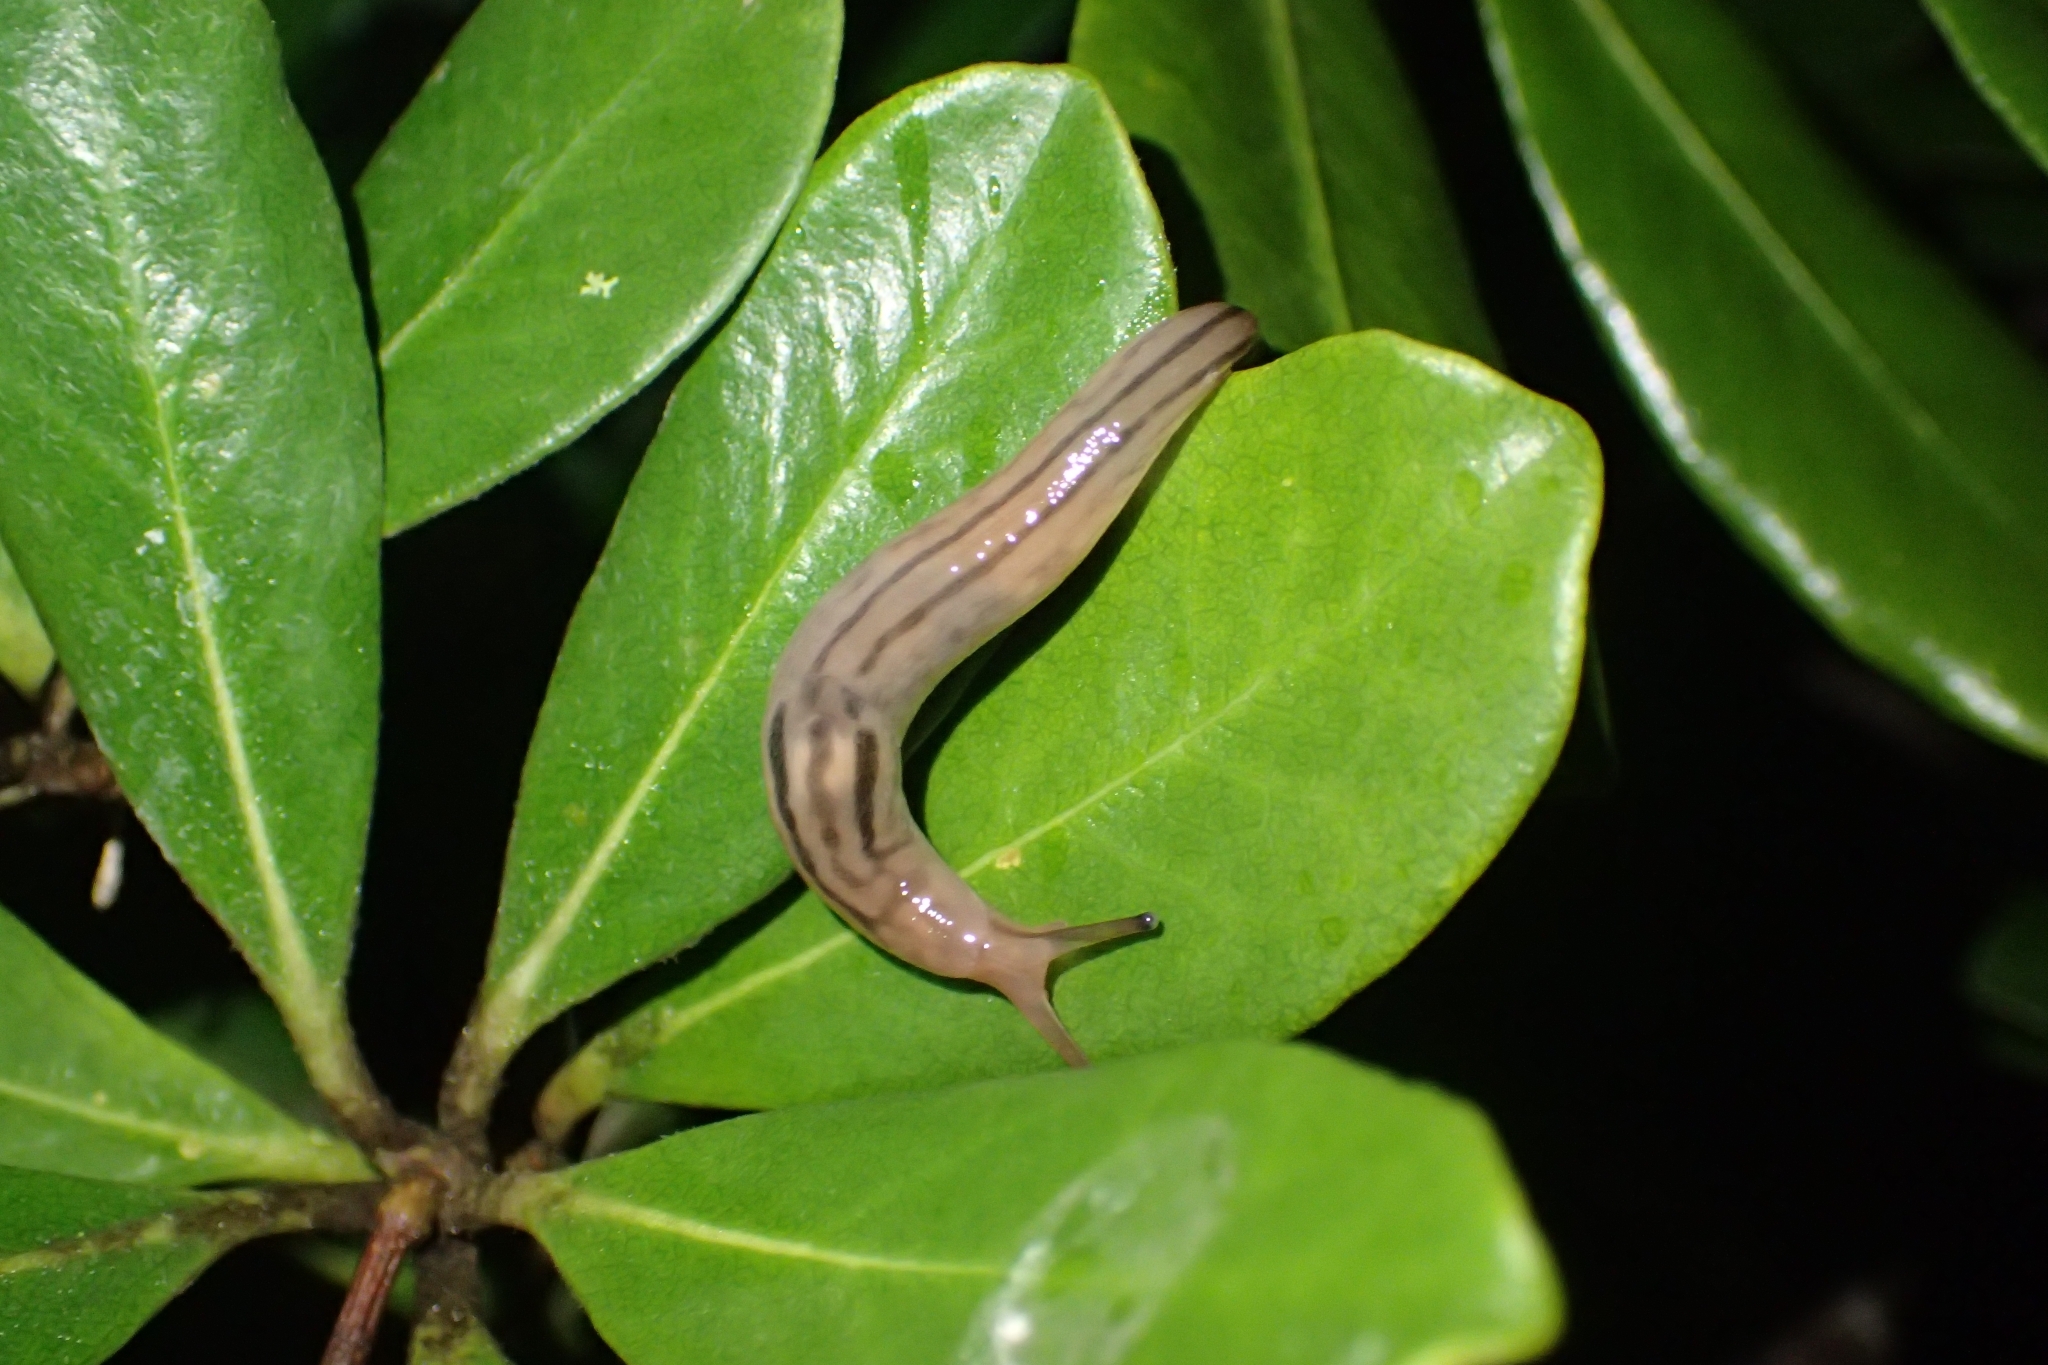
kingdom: Animalia
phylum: Mollusca
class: Gastropoda
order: Stylommatophora
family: Limacidae
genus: Ambigolimax
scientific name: Ambigolimax
